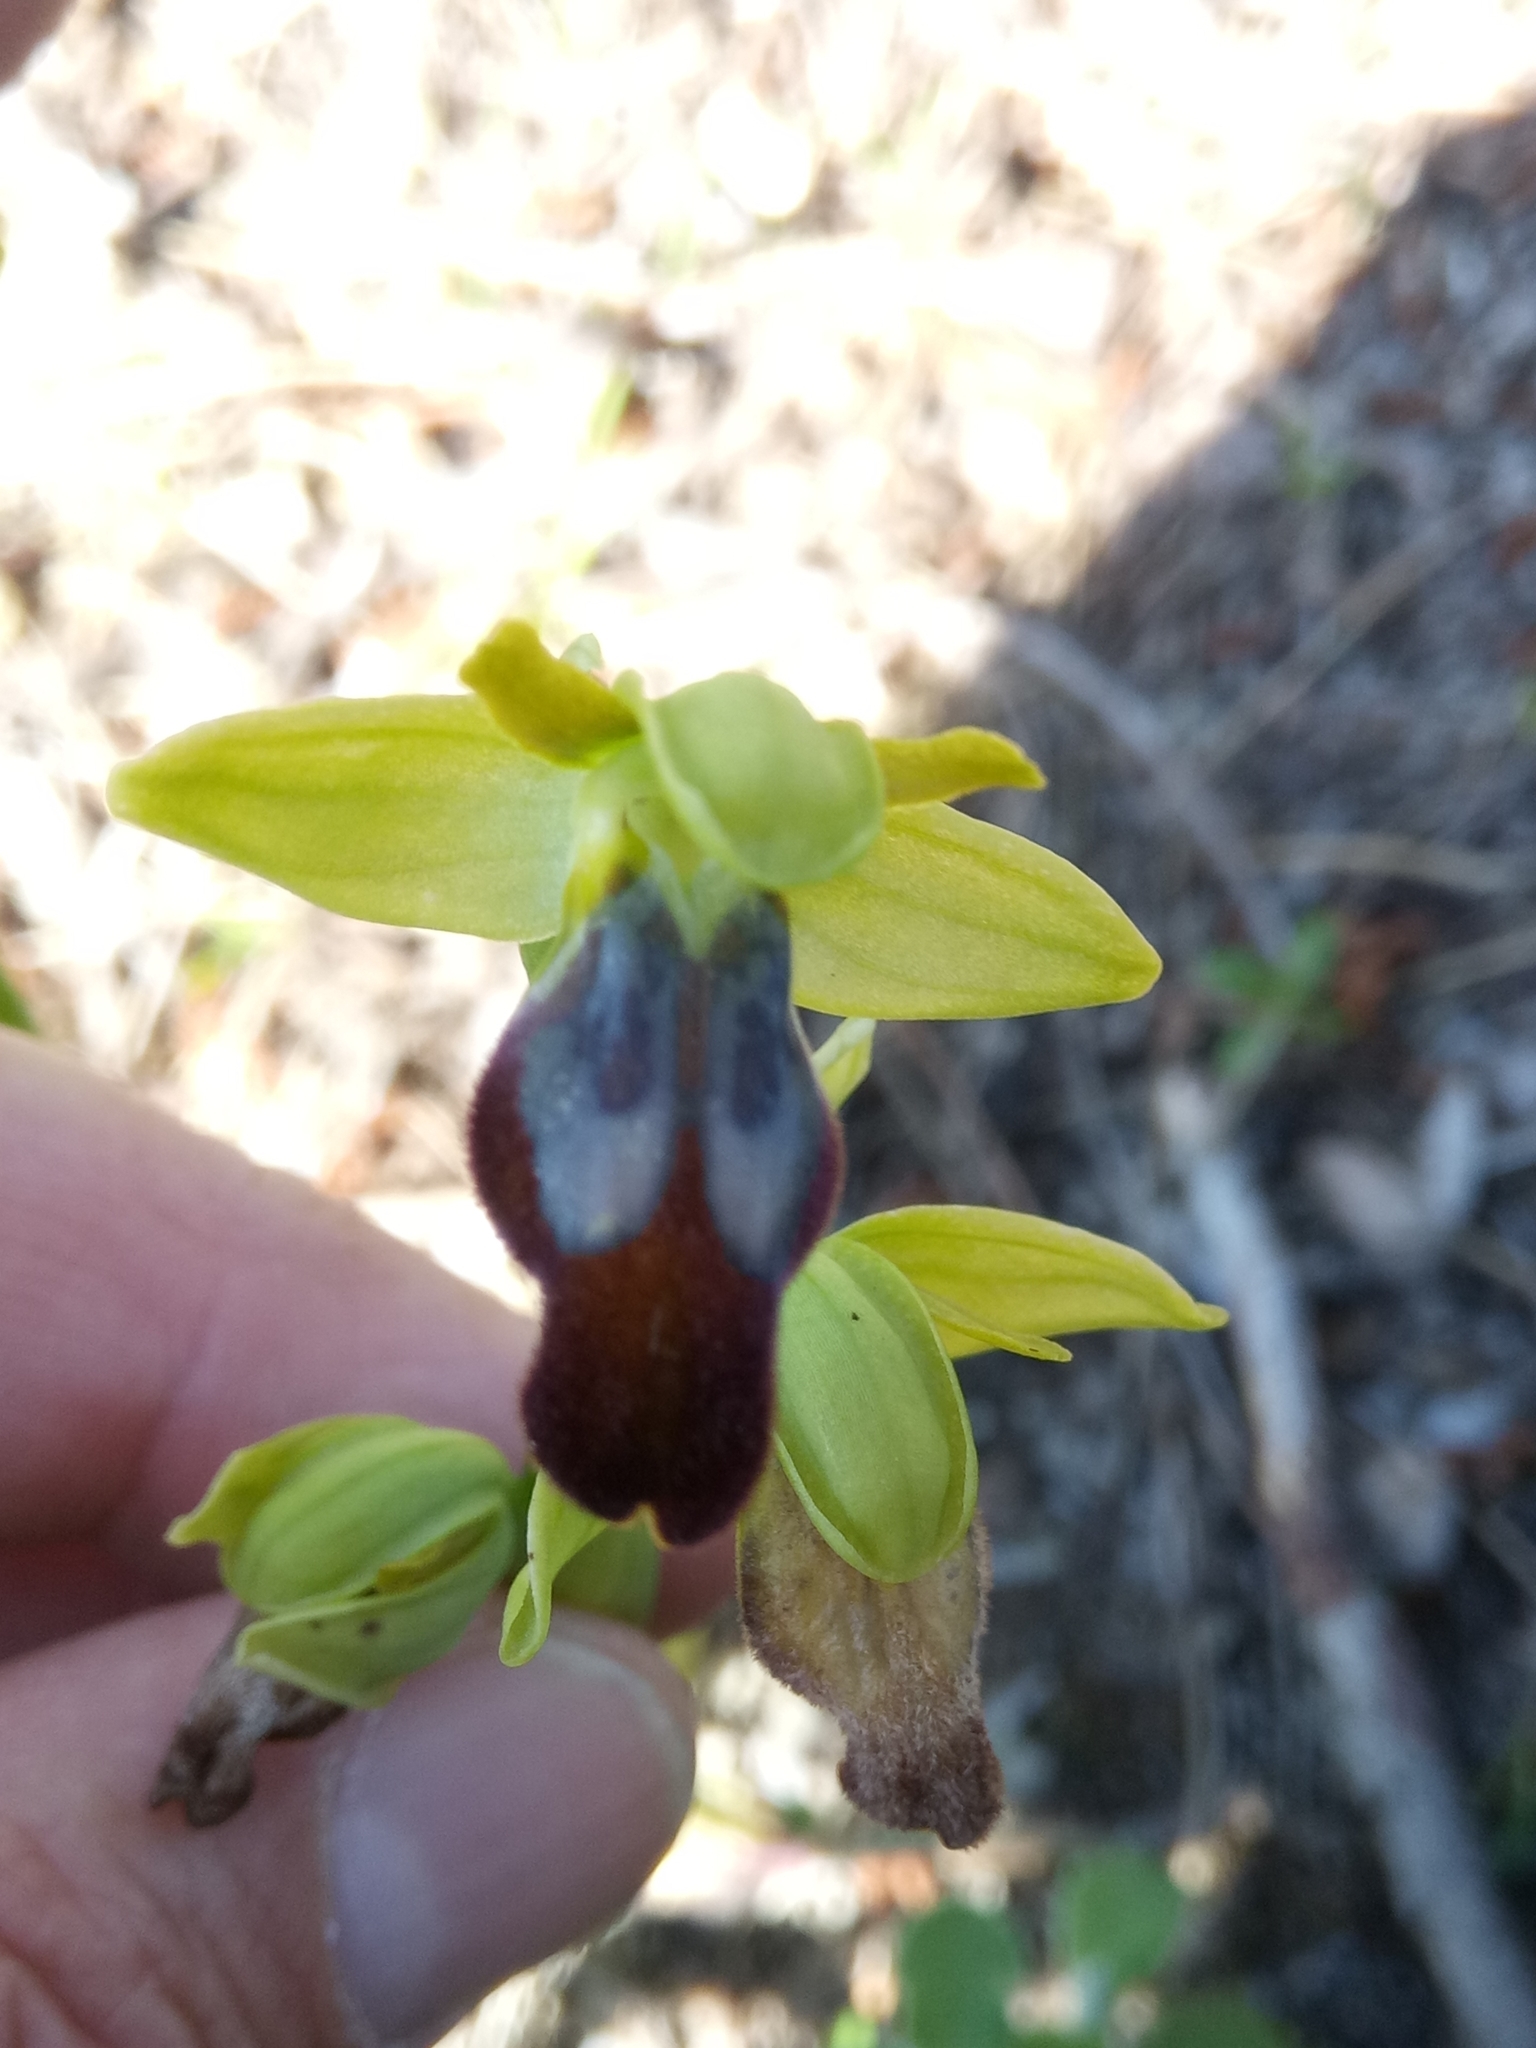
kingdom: Plantae
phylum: Tracheophyta
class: Liliopsida
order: Asparagales
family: Orchidaceae
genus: Ophrys
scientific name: Ophrys fusca
